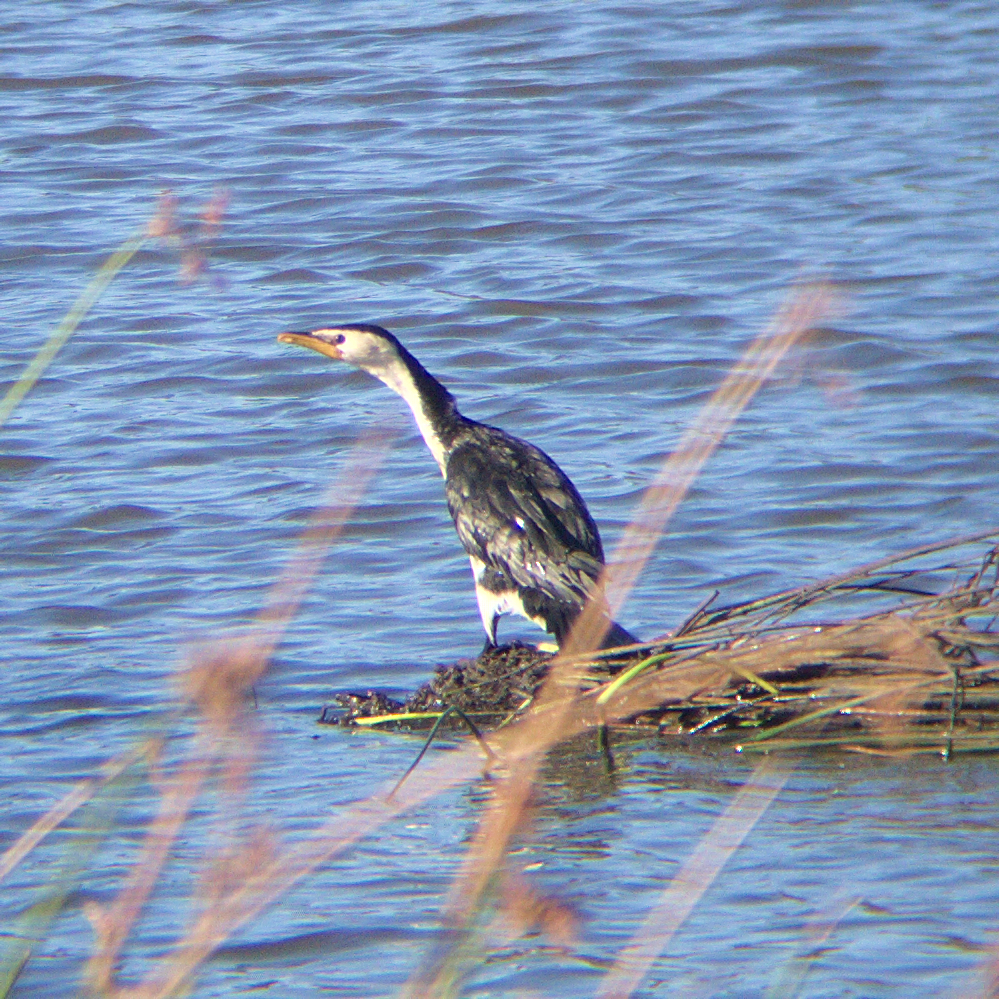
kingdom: Animalia
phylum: Chordata
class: Aves
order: Suliformes
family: Phalacrocoracidae
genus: Microcarbo
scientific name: Microcarbo melanoleucos
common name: Little pied cormorant
